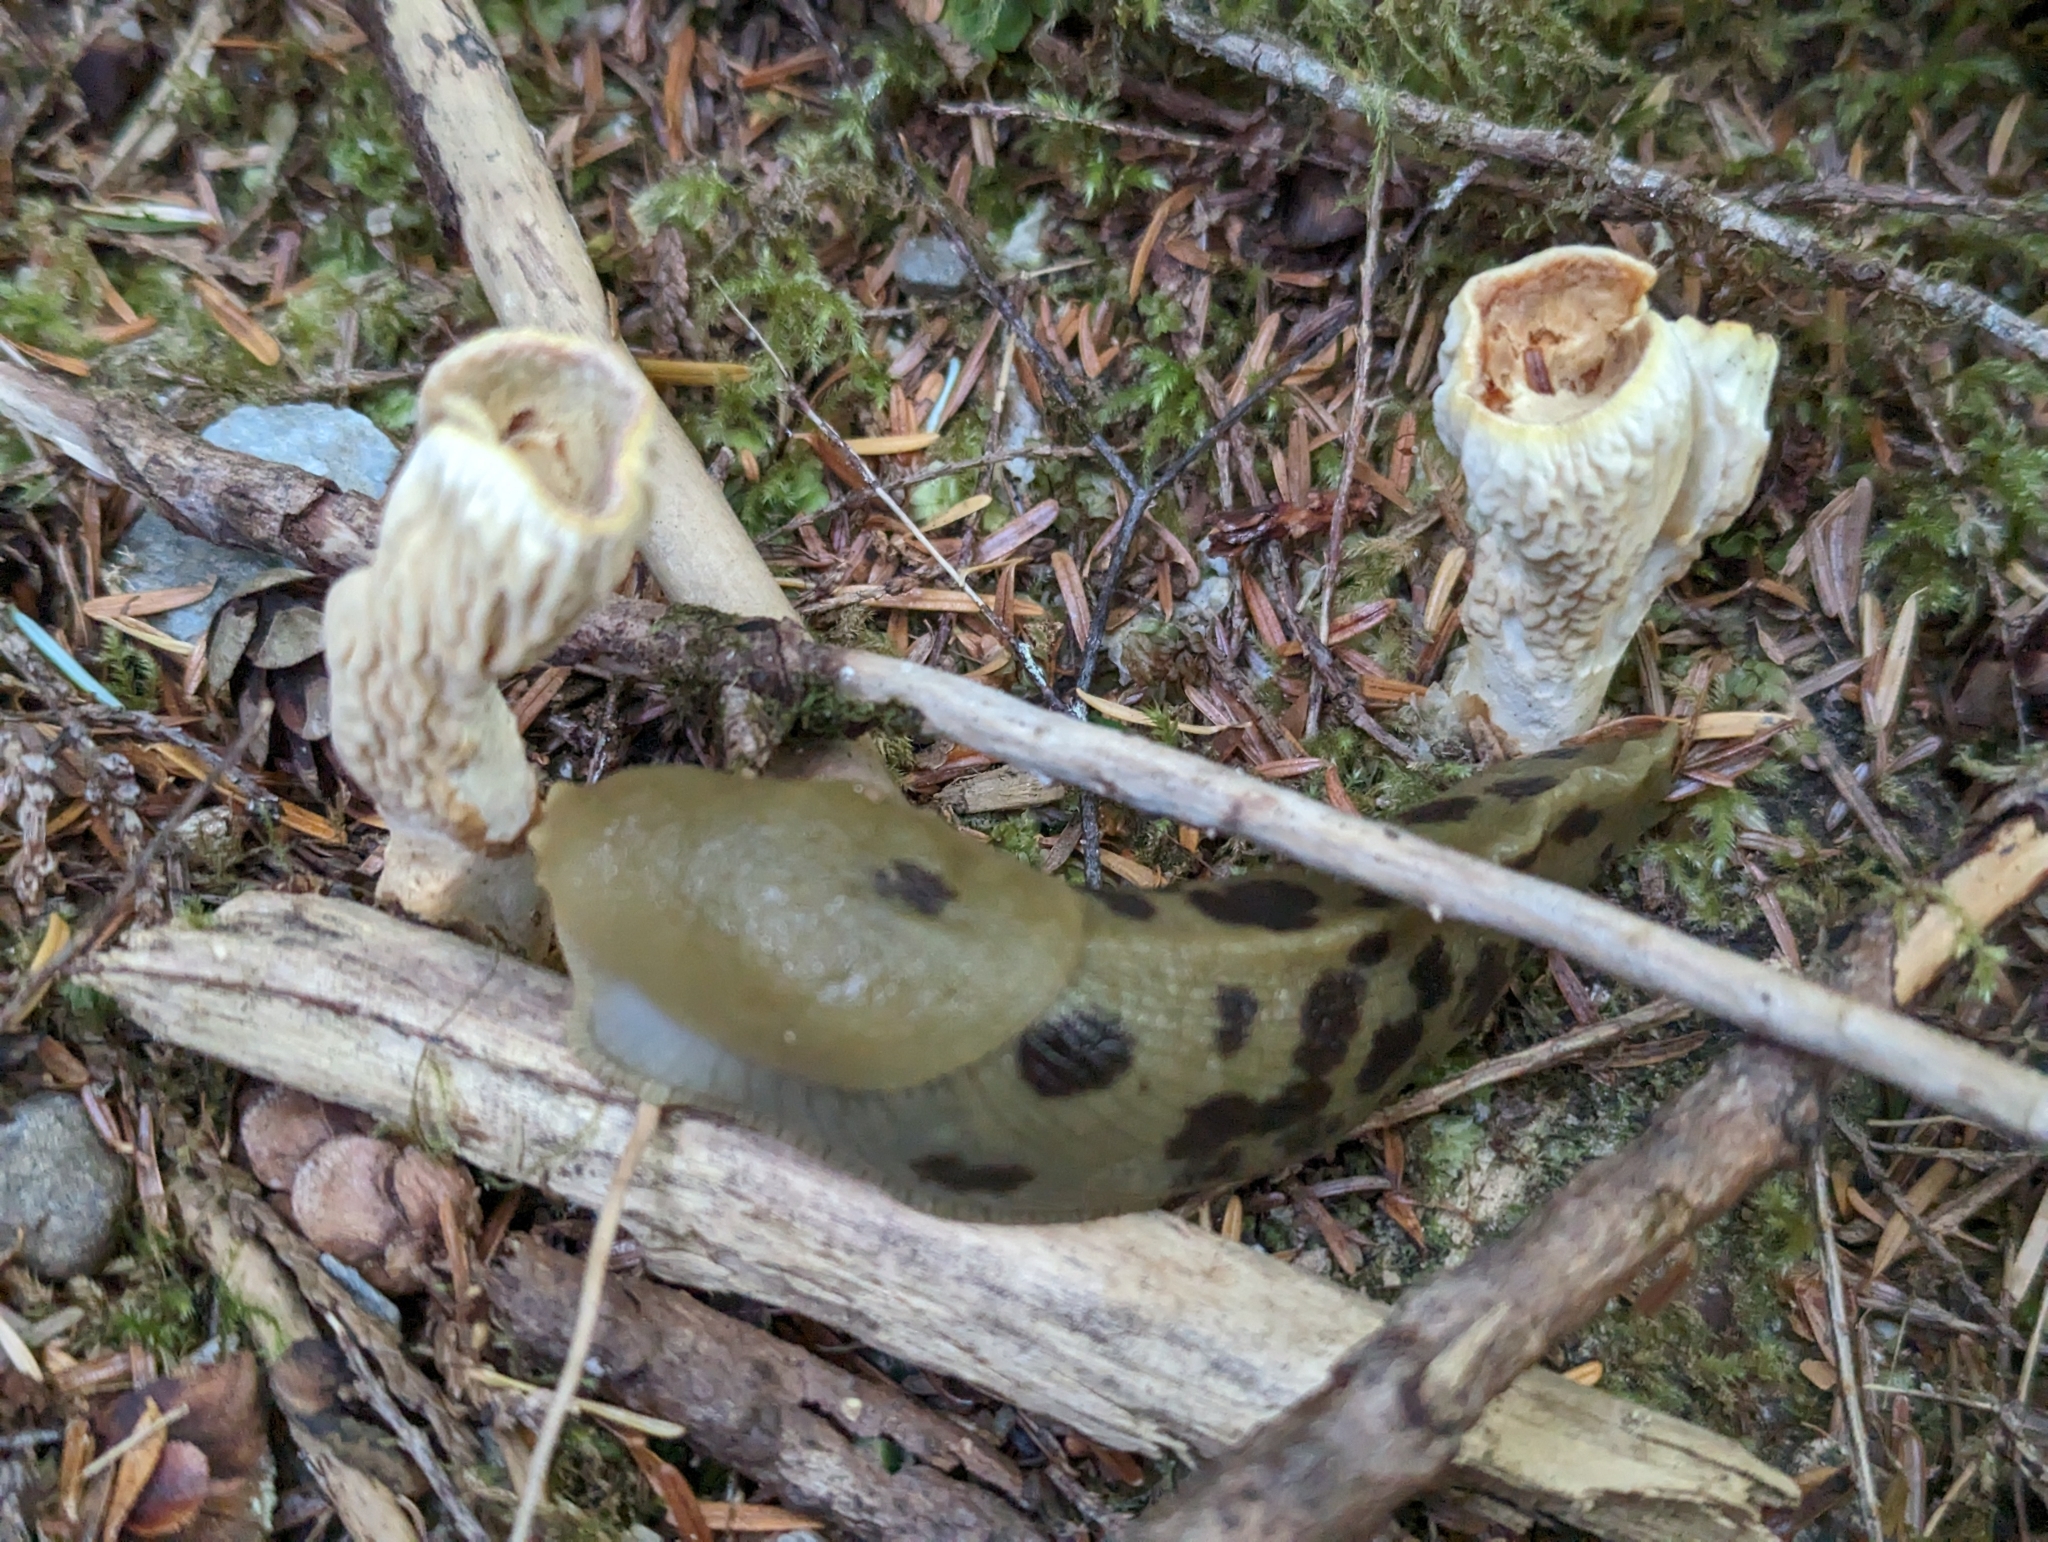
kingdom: Animalia
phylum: Mollusca
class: Gastropoda
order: Stylommatophora
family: Ariolimacidae
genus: Ariolimax
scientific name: Ariolimax columbianus
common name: Pacific banana slug
